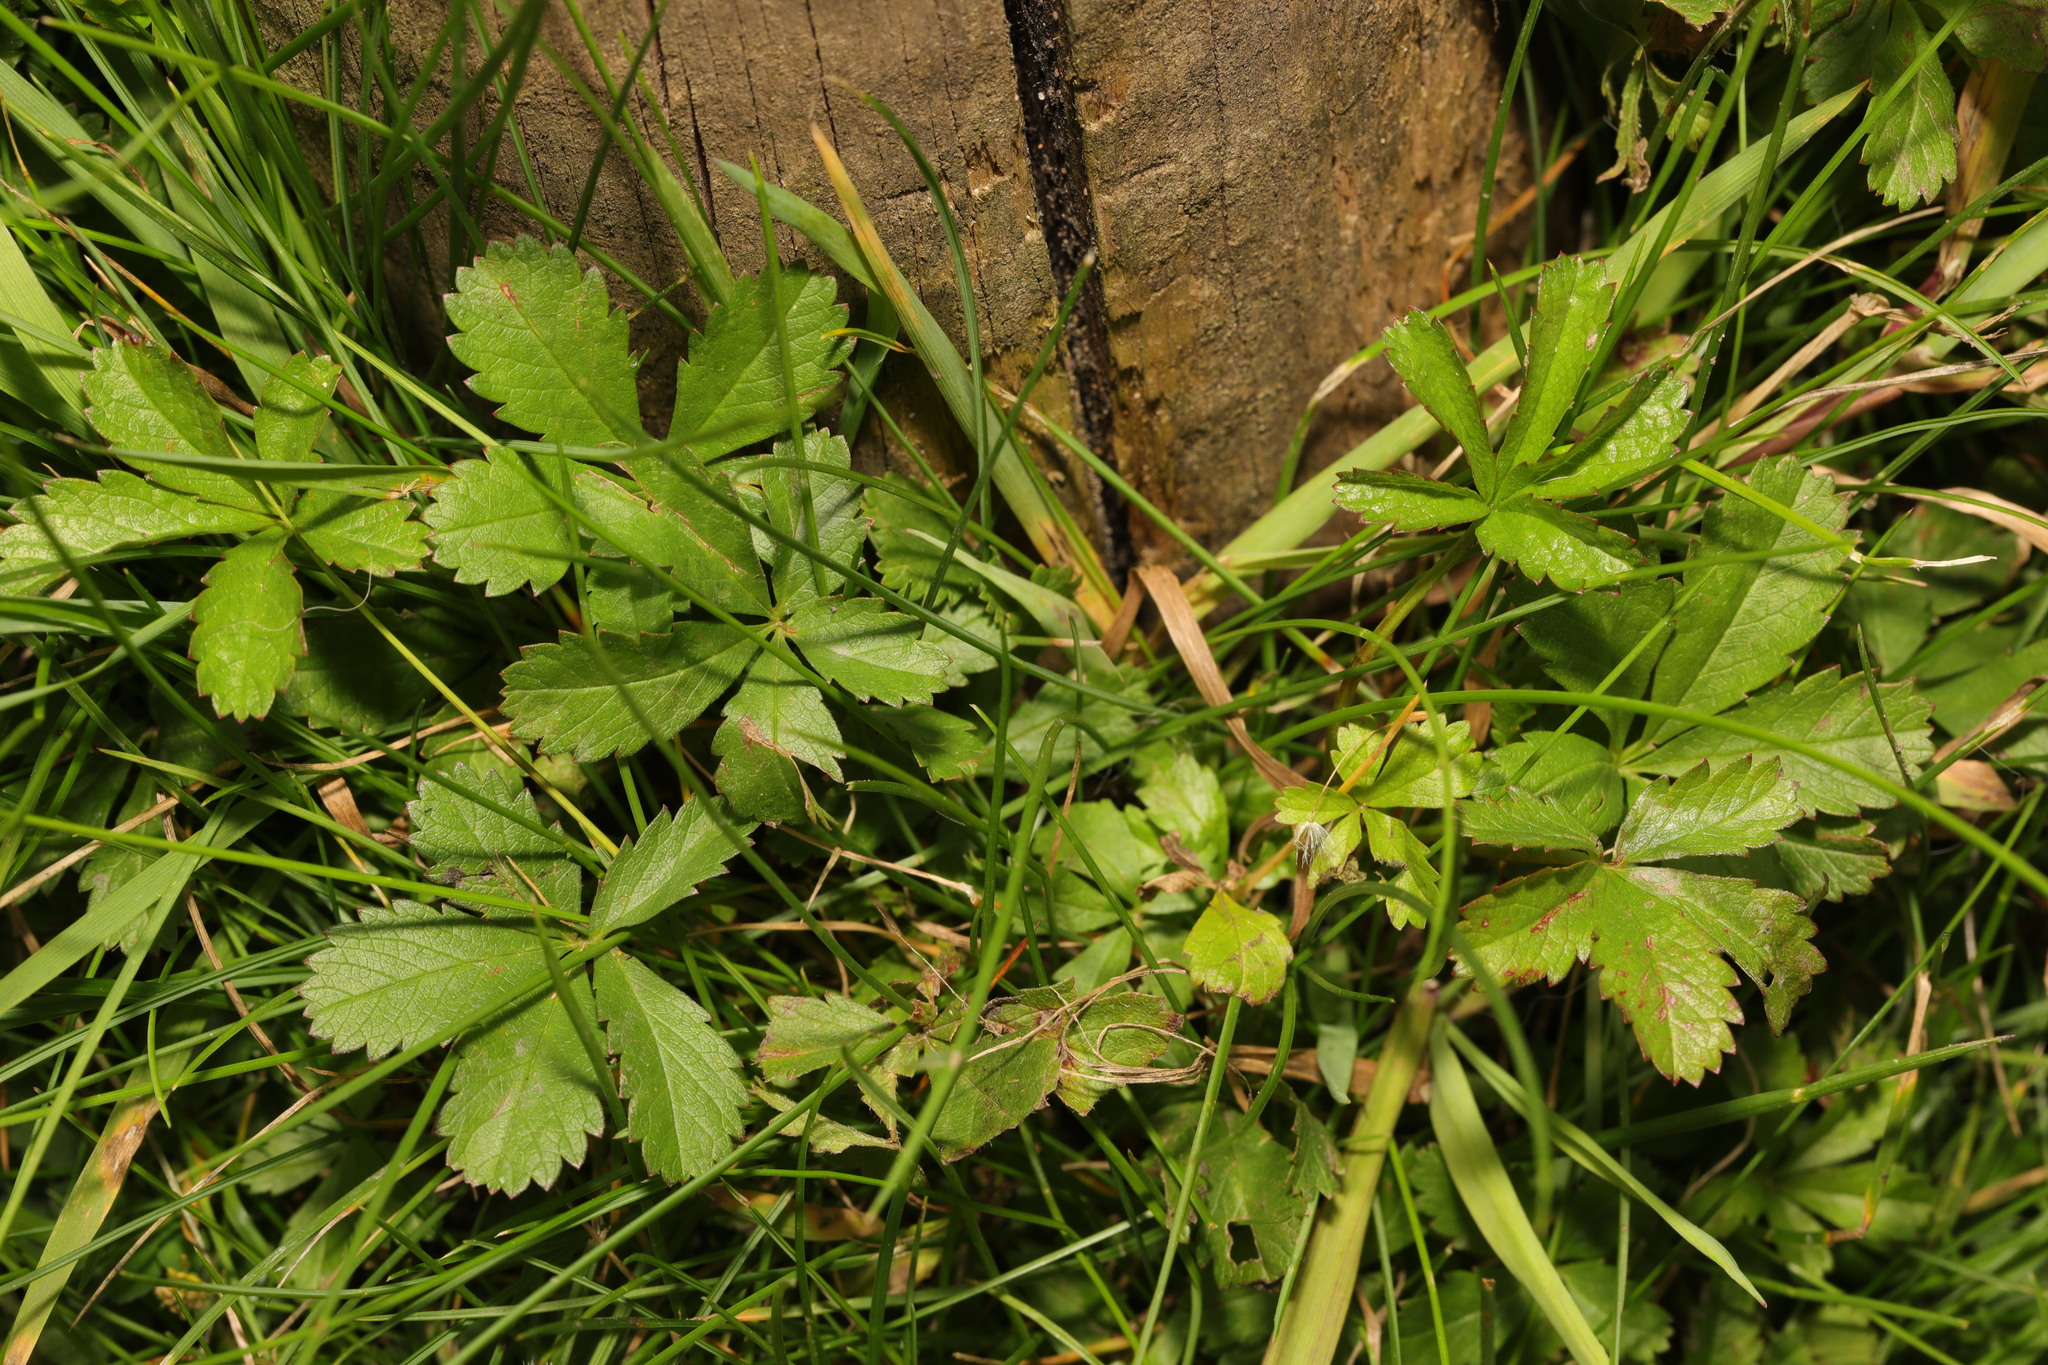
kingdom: Plantae
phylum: Tracheophyta
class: Magnoliopsida
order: Rosales
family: Rosaceae
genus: Potentilla
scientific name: Potentilla reptans
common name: Creeping cinquefoil
